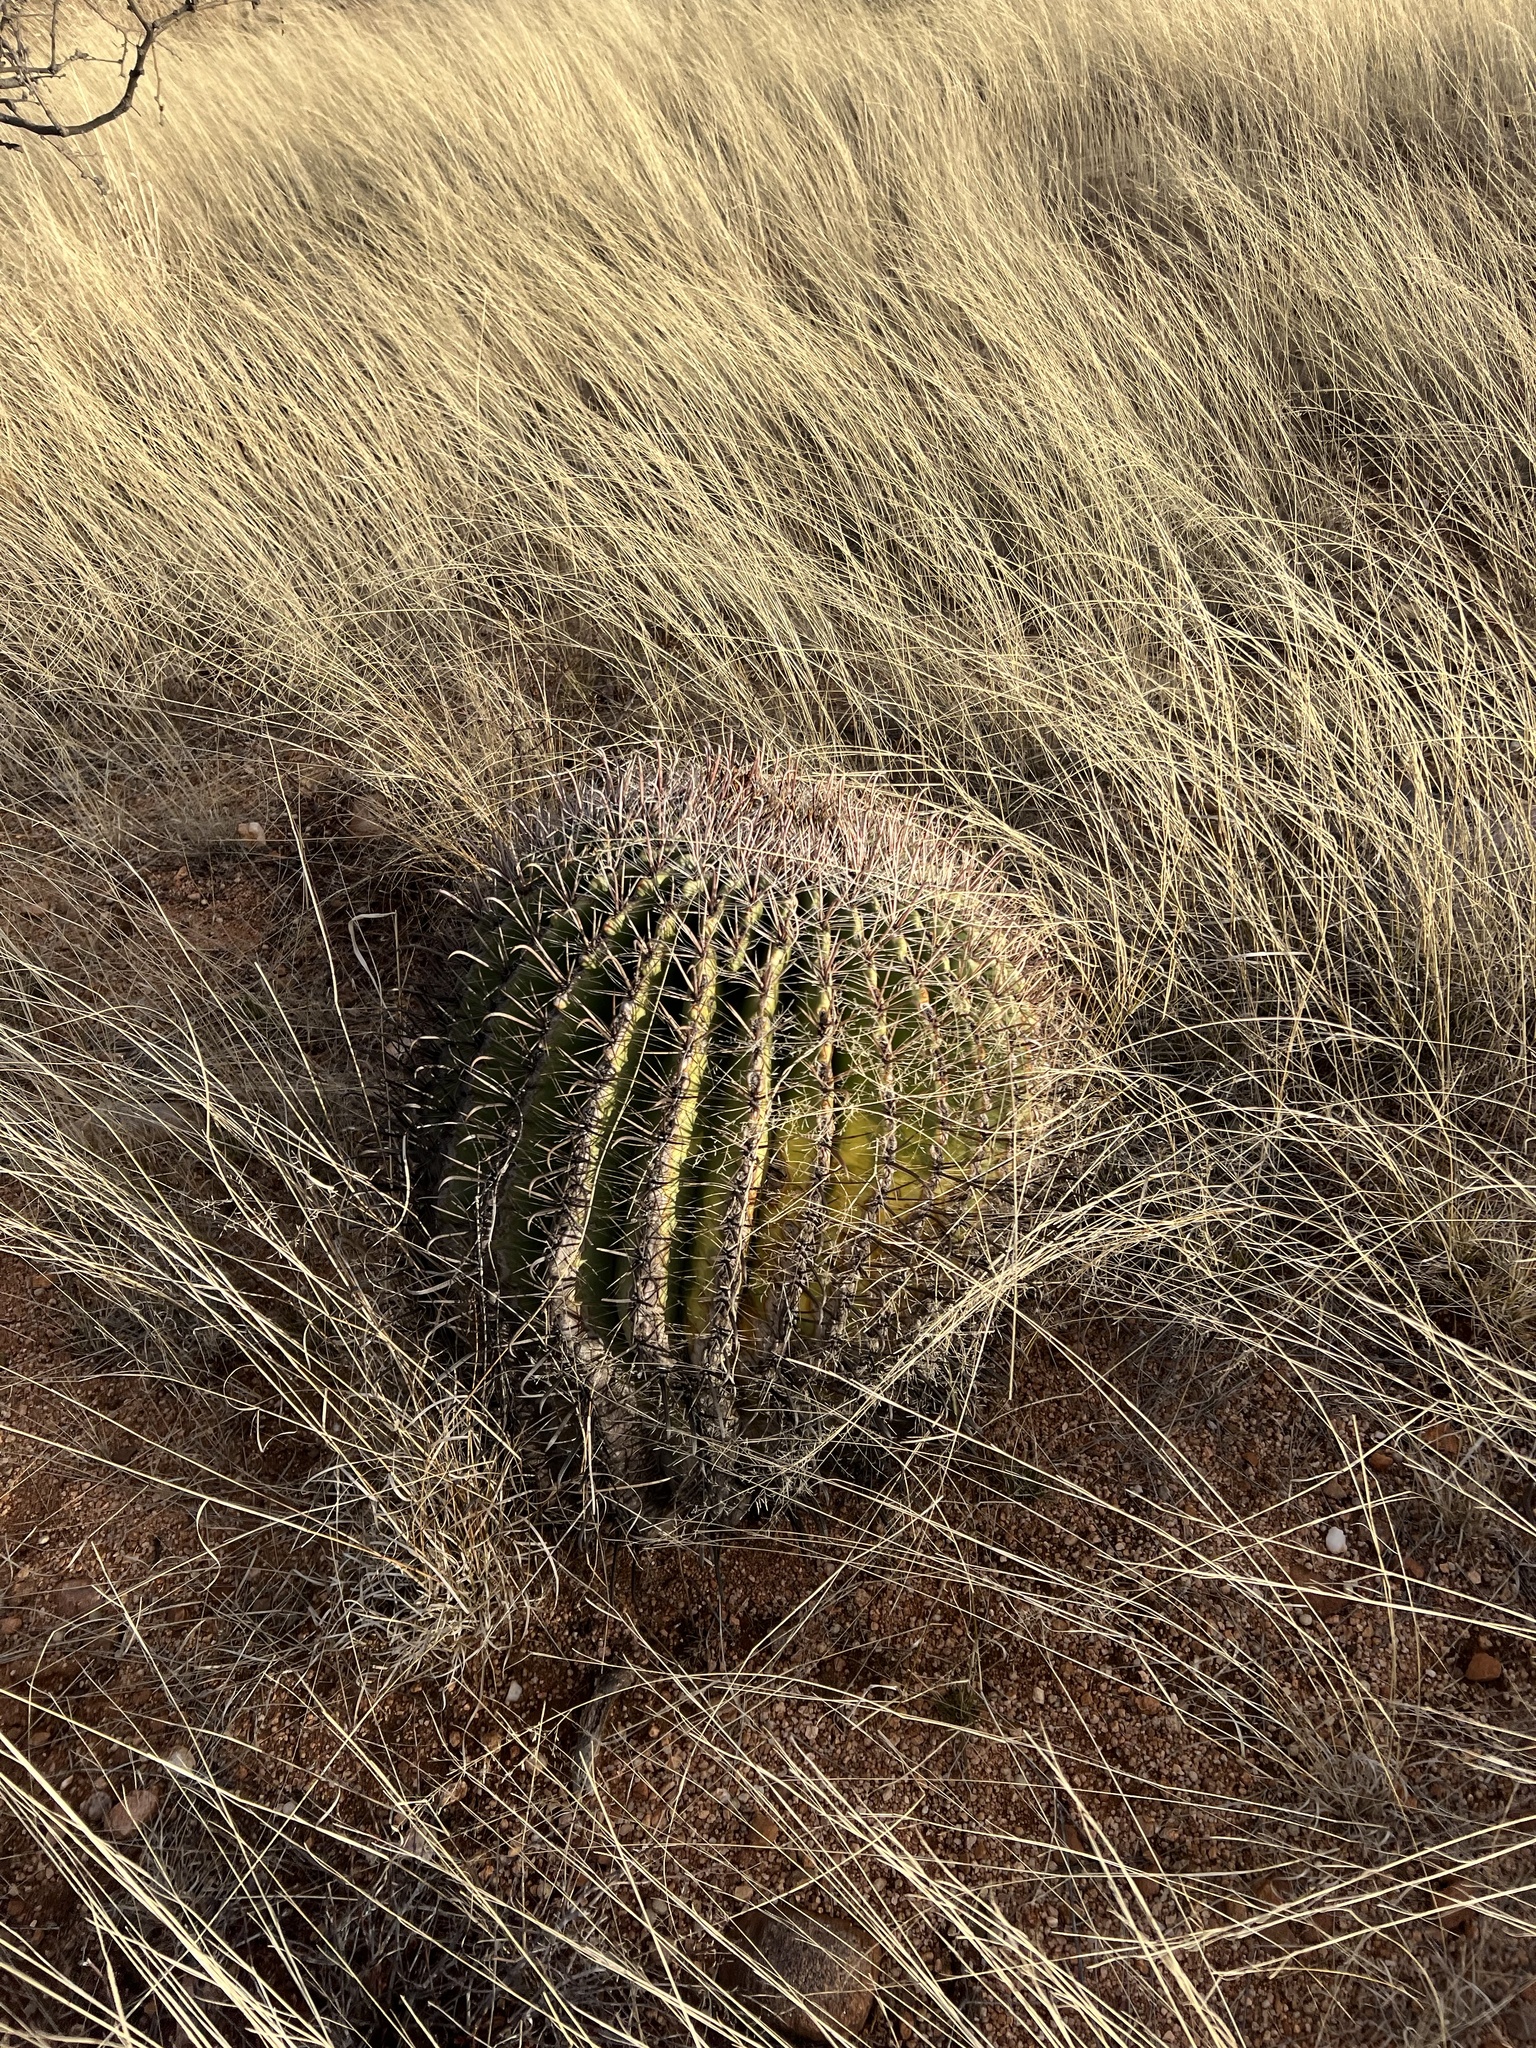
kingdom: Plantae
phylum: Tracheophyta
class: Magnoliopsida
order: Caryophyllales
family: Cactaceae
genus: Ferocactus
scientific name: Ferocactus wislizeni
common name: Candy barrel cactus
